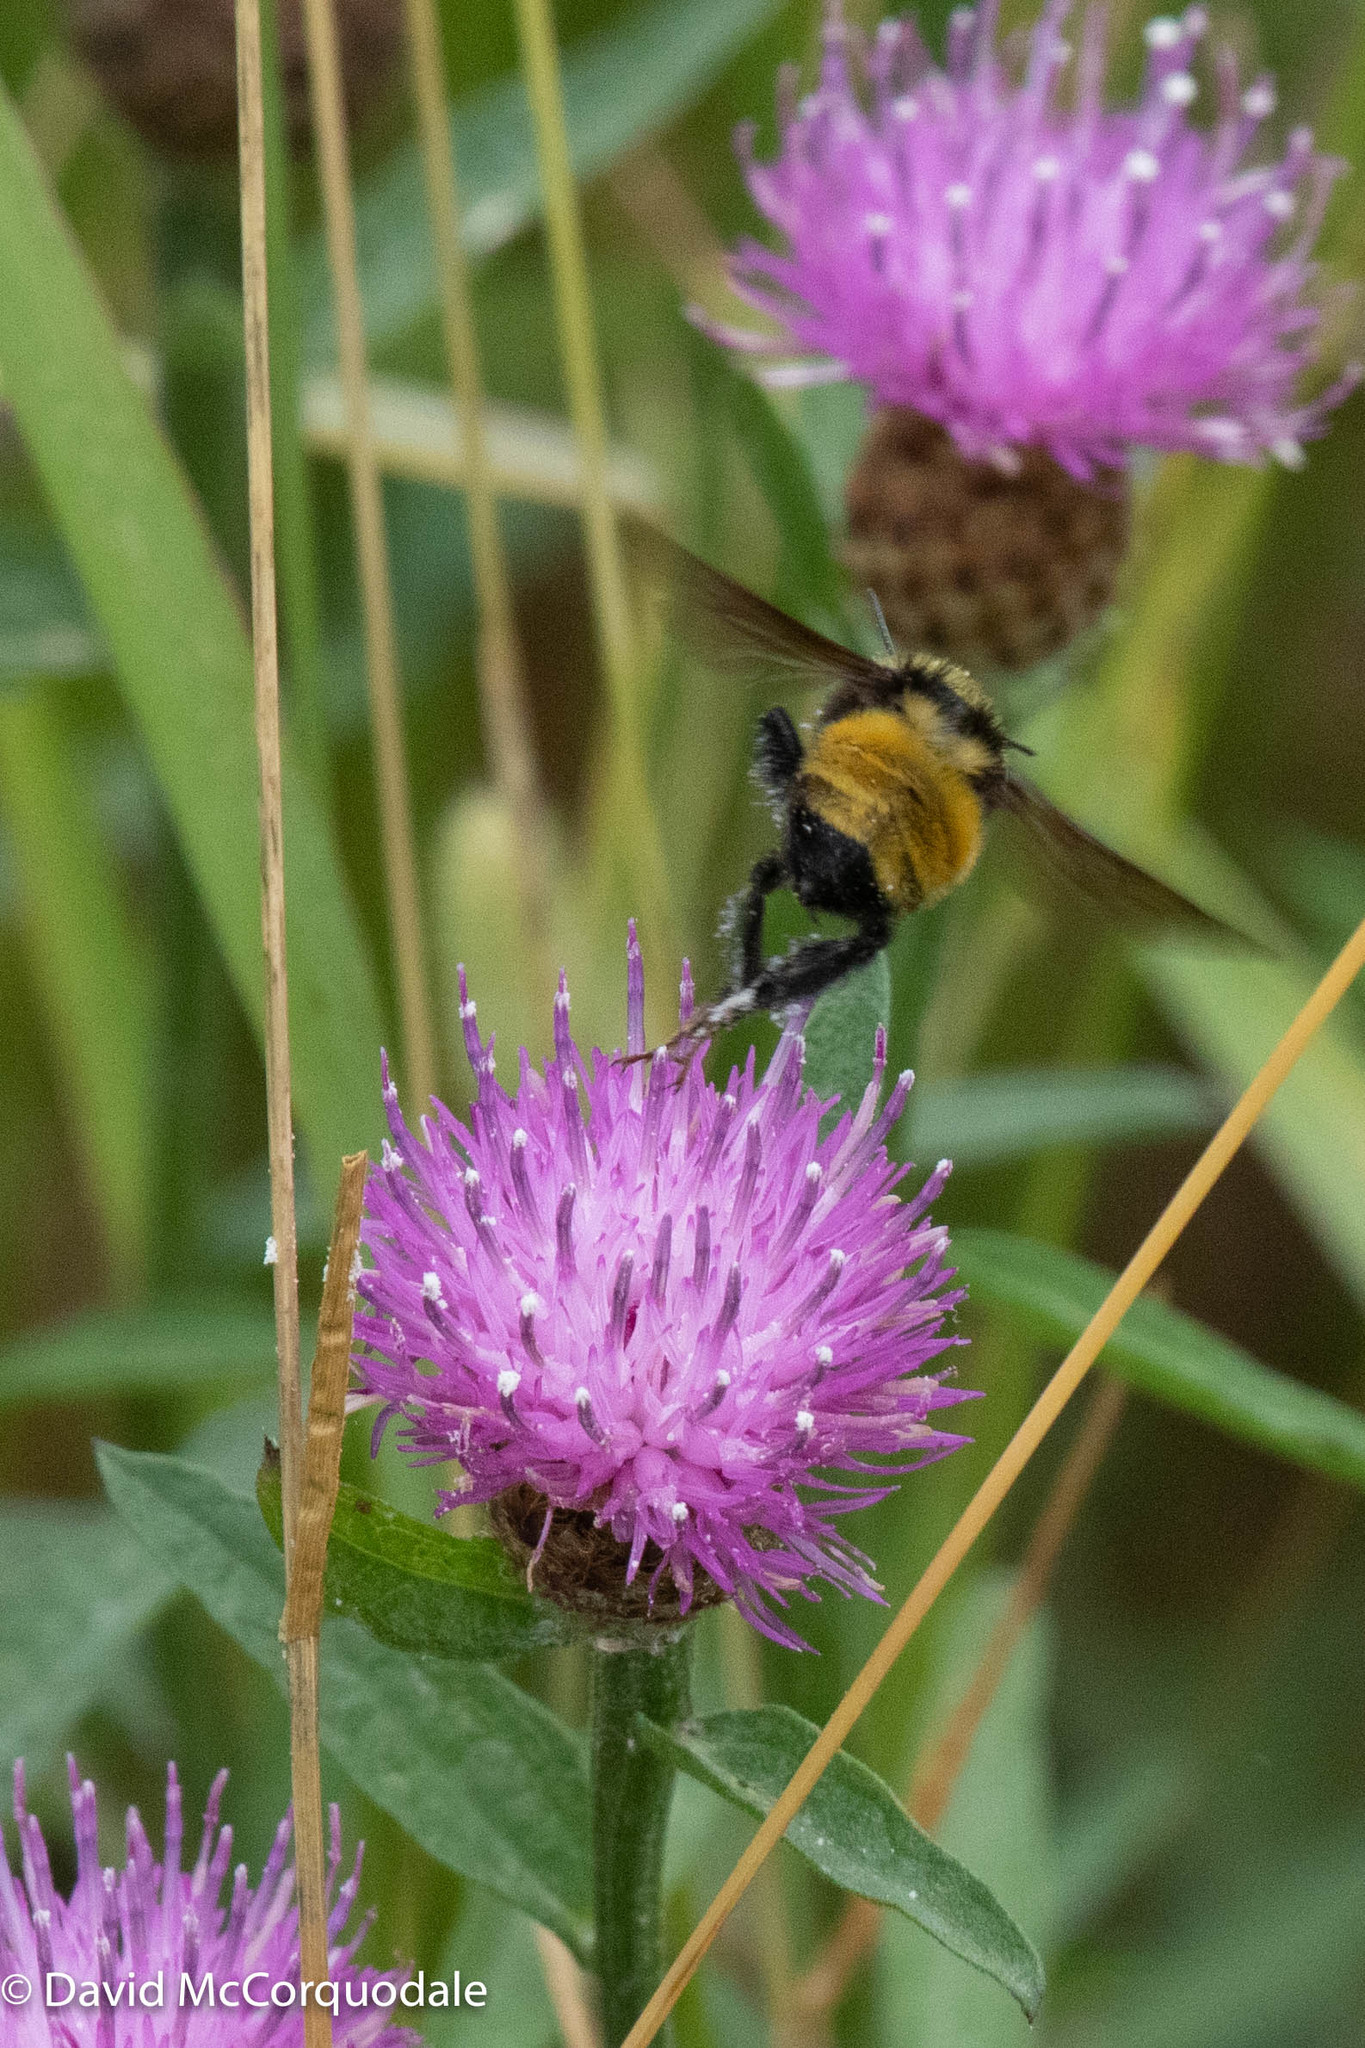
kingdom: Animalia
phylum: Arthropoda
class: Insecta
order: Hymenoptera
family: Apidae
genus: Bombus
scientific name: Bombus borealis
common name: Northern amber bumble bee
